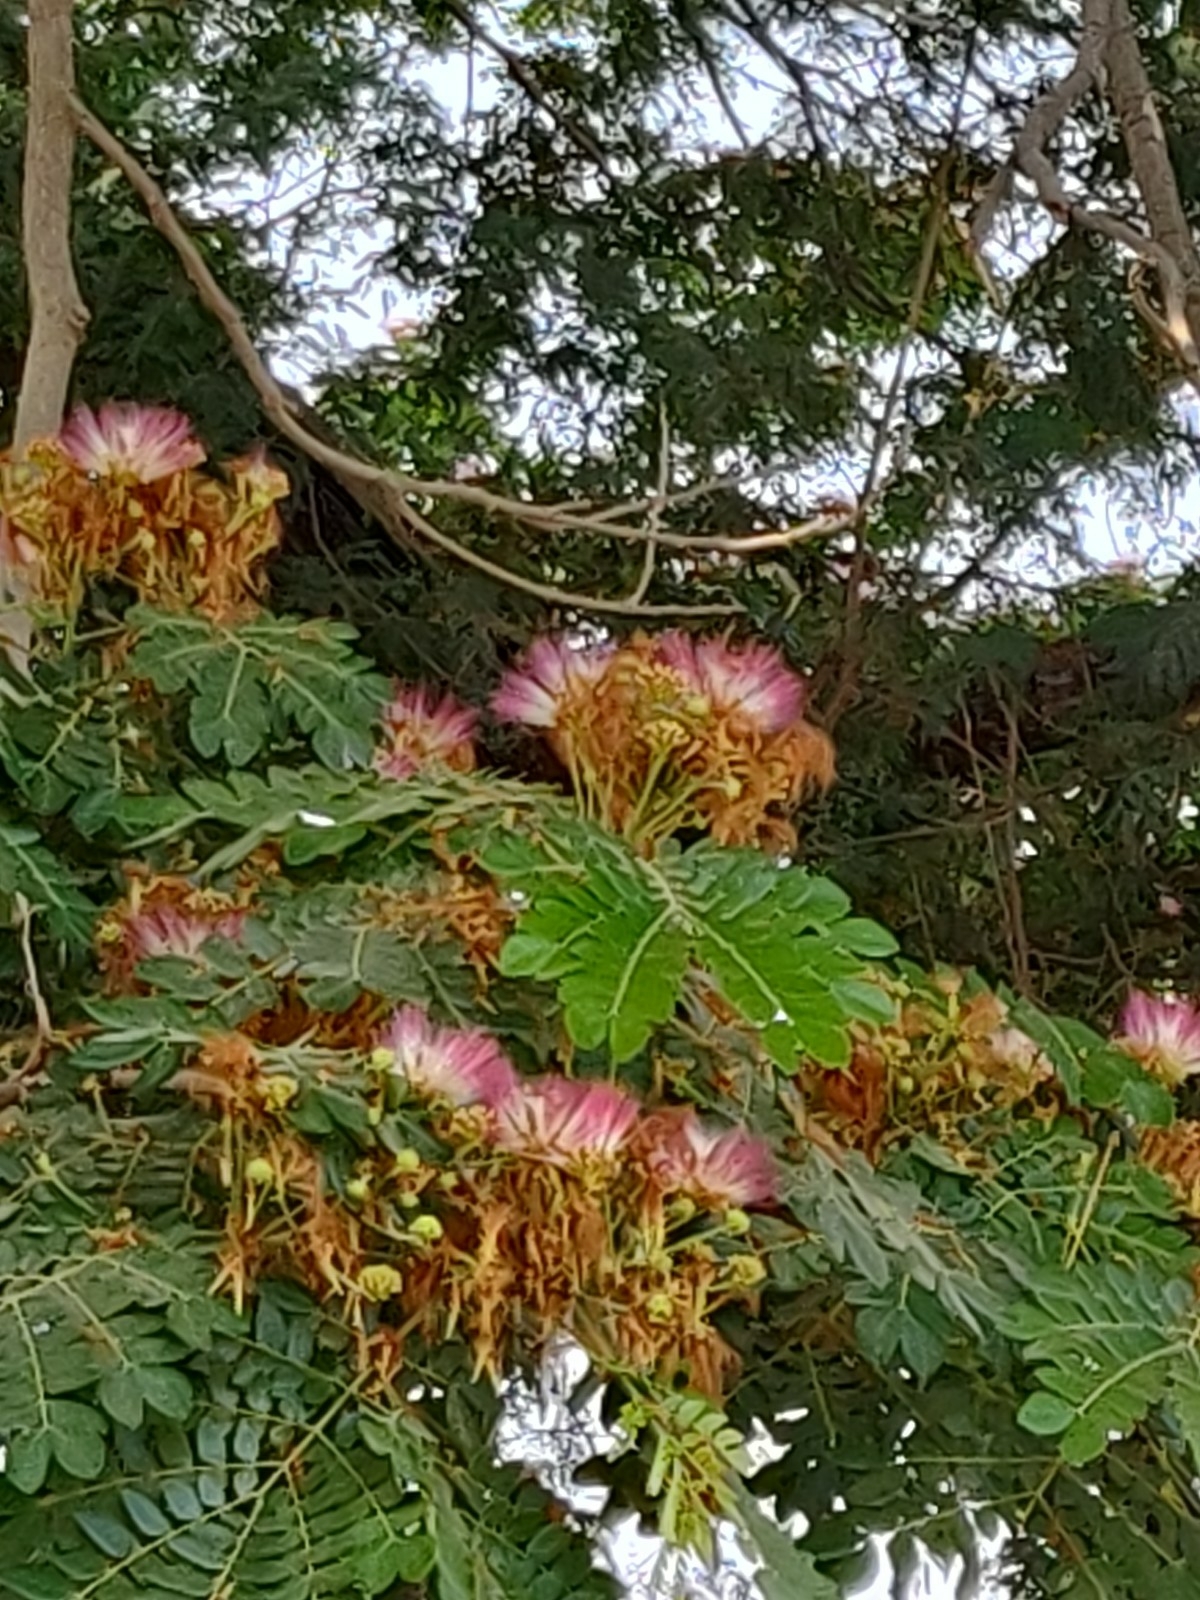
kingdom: Plantae
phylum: Tracheophyta
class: Magnoliopsida
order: Fabales
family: Fabaceae
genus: Samanea
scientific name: Samanea saman
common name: Raintree
